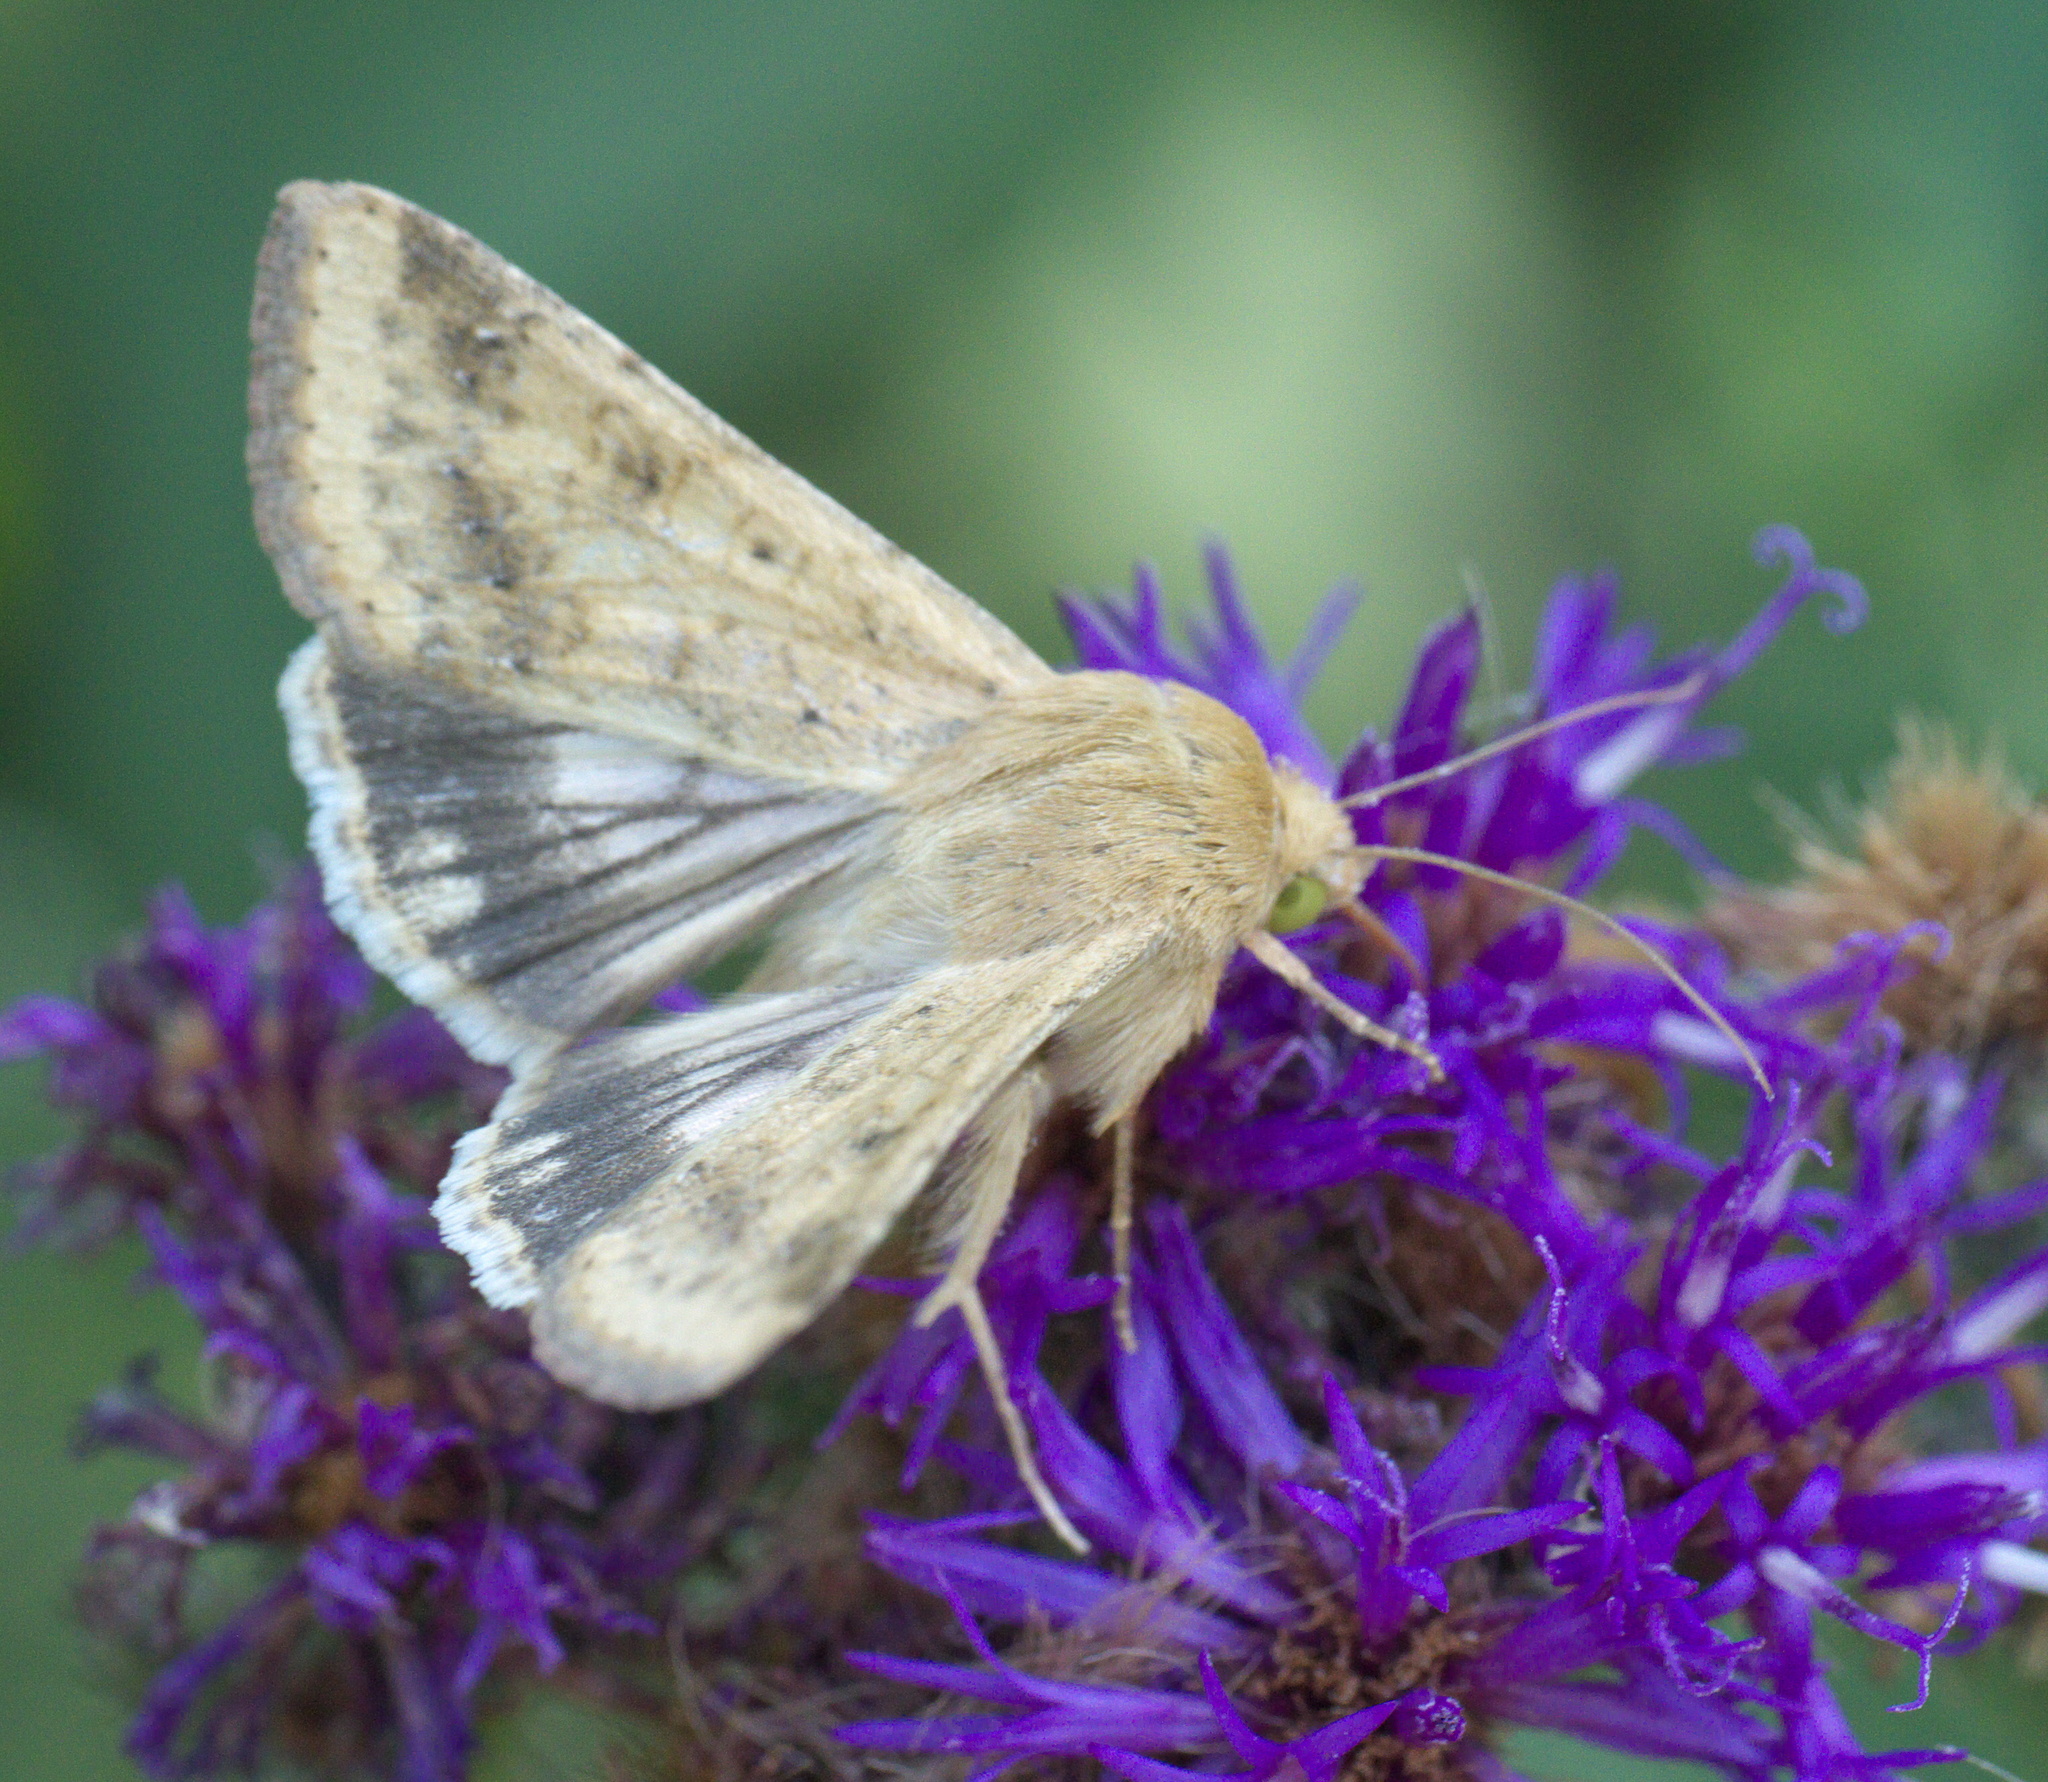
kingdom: Animalia
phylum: Arthropoda
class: Insecta
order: Lepidoptera
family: Noctuidae
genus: Helicoverpa
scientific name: Helicoverpa zea
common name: Bollworm
